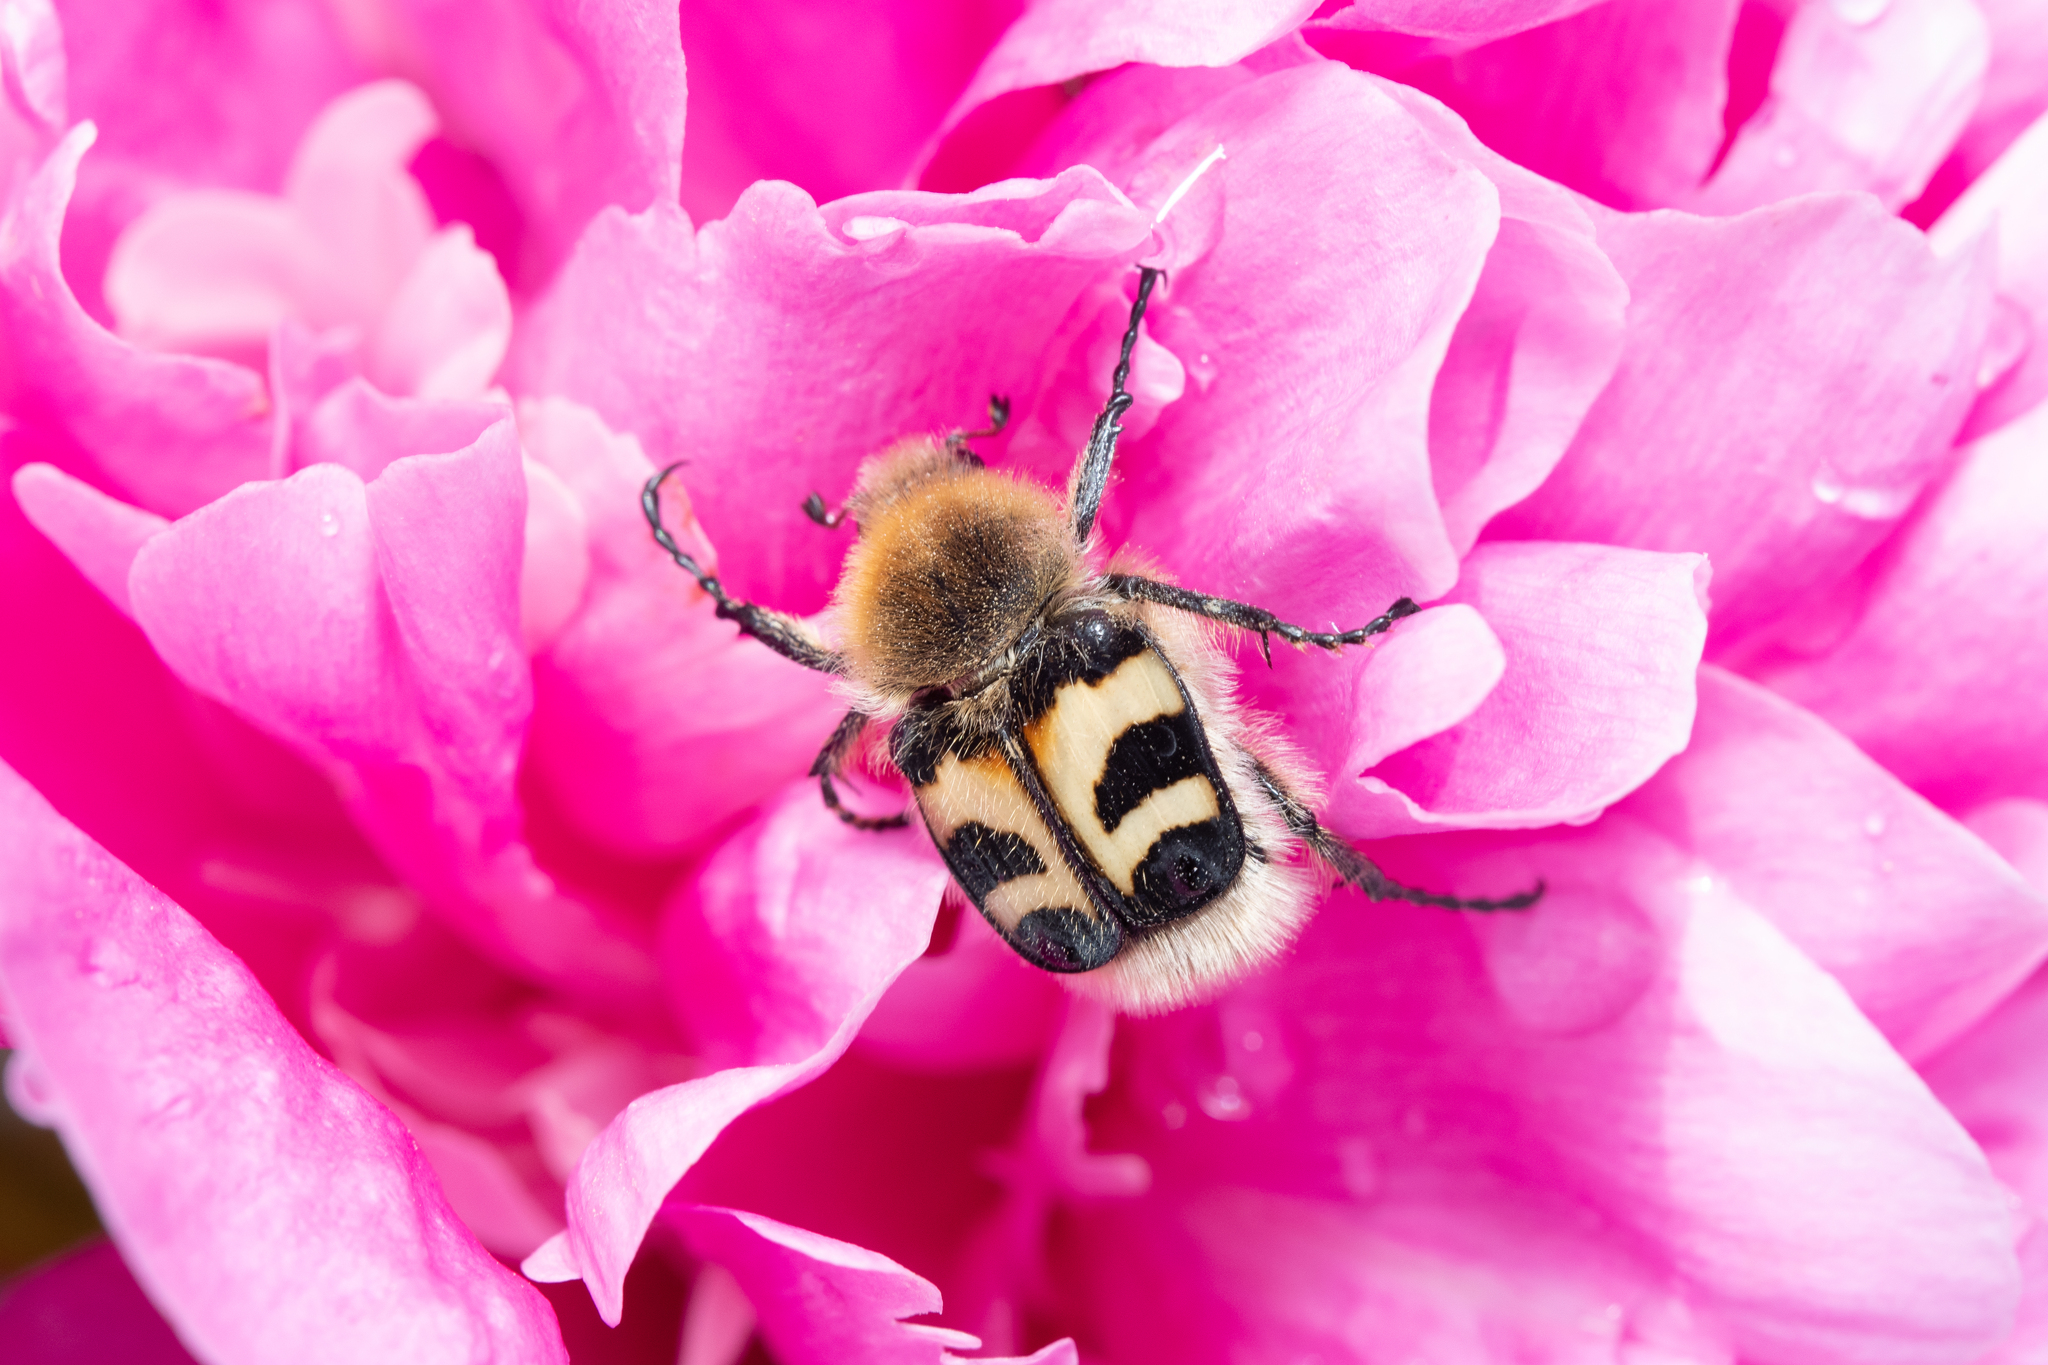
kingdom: Animalia
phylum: Arthropoda
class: Insecta
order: Coleoptera
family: Scarabaeidae
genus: Trichius
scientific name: Trichius fasciatus
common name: Bee beetle
